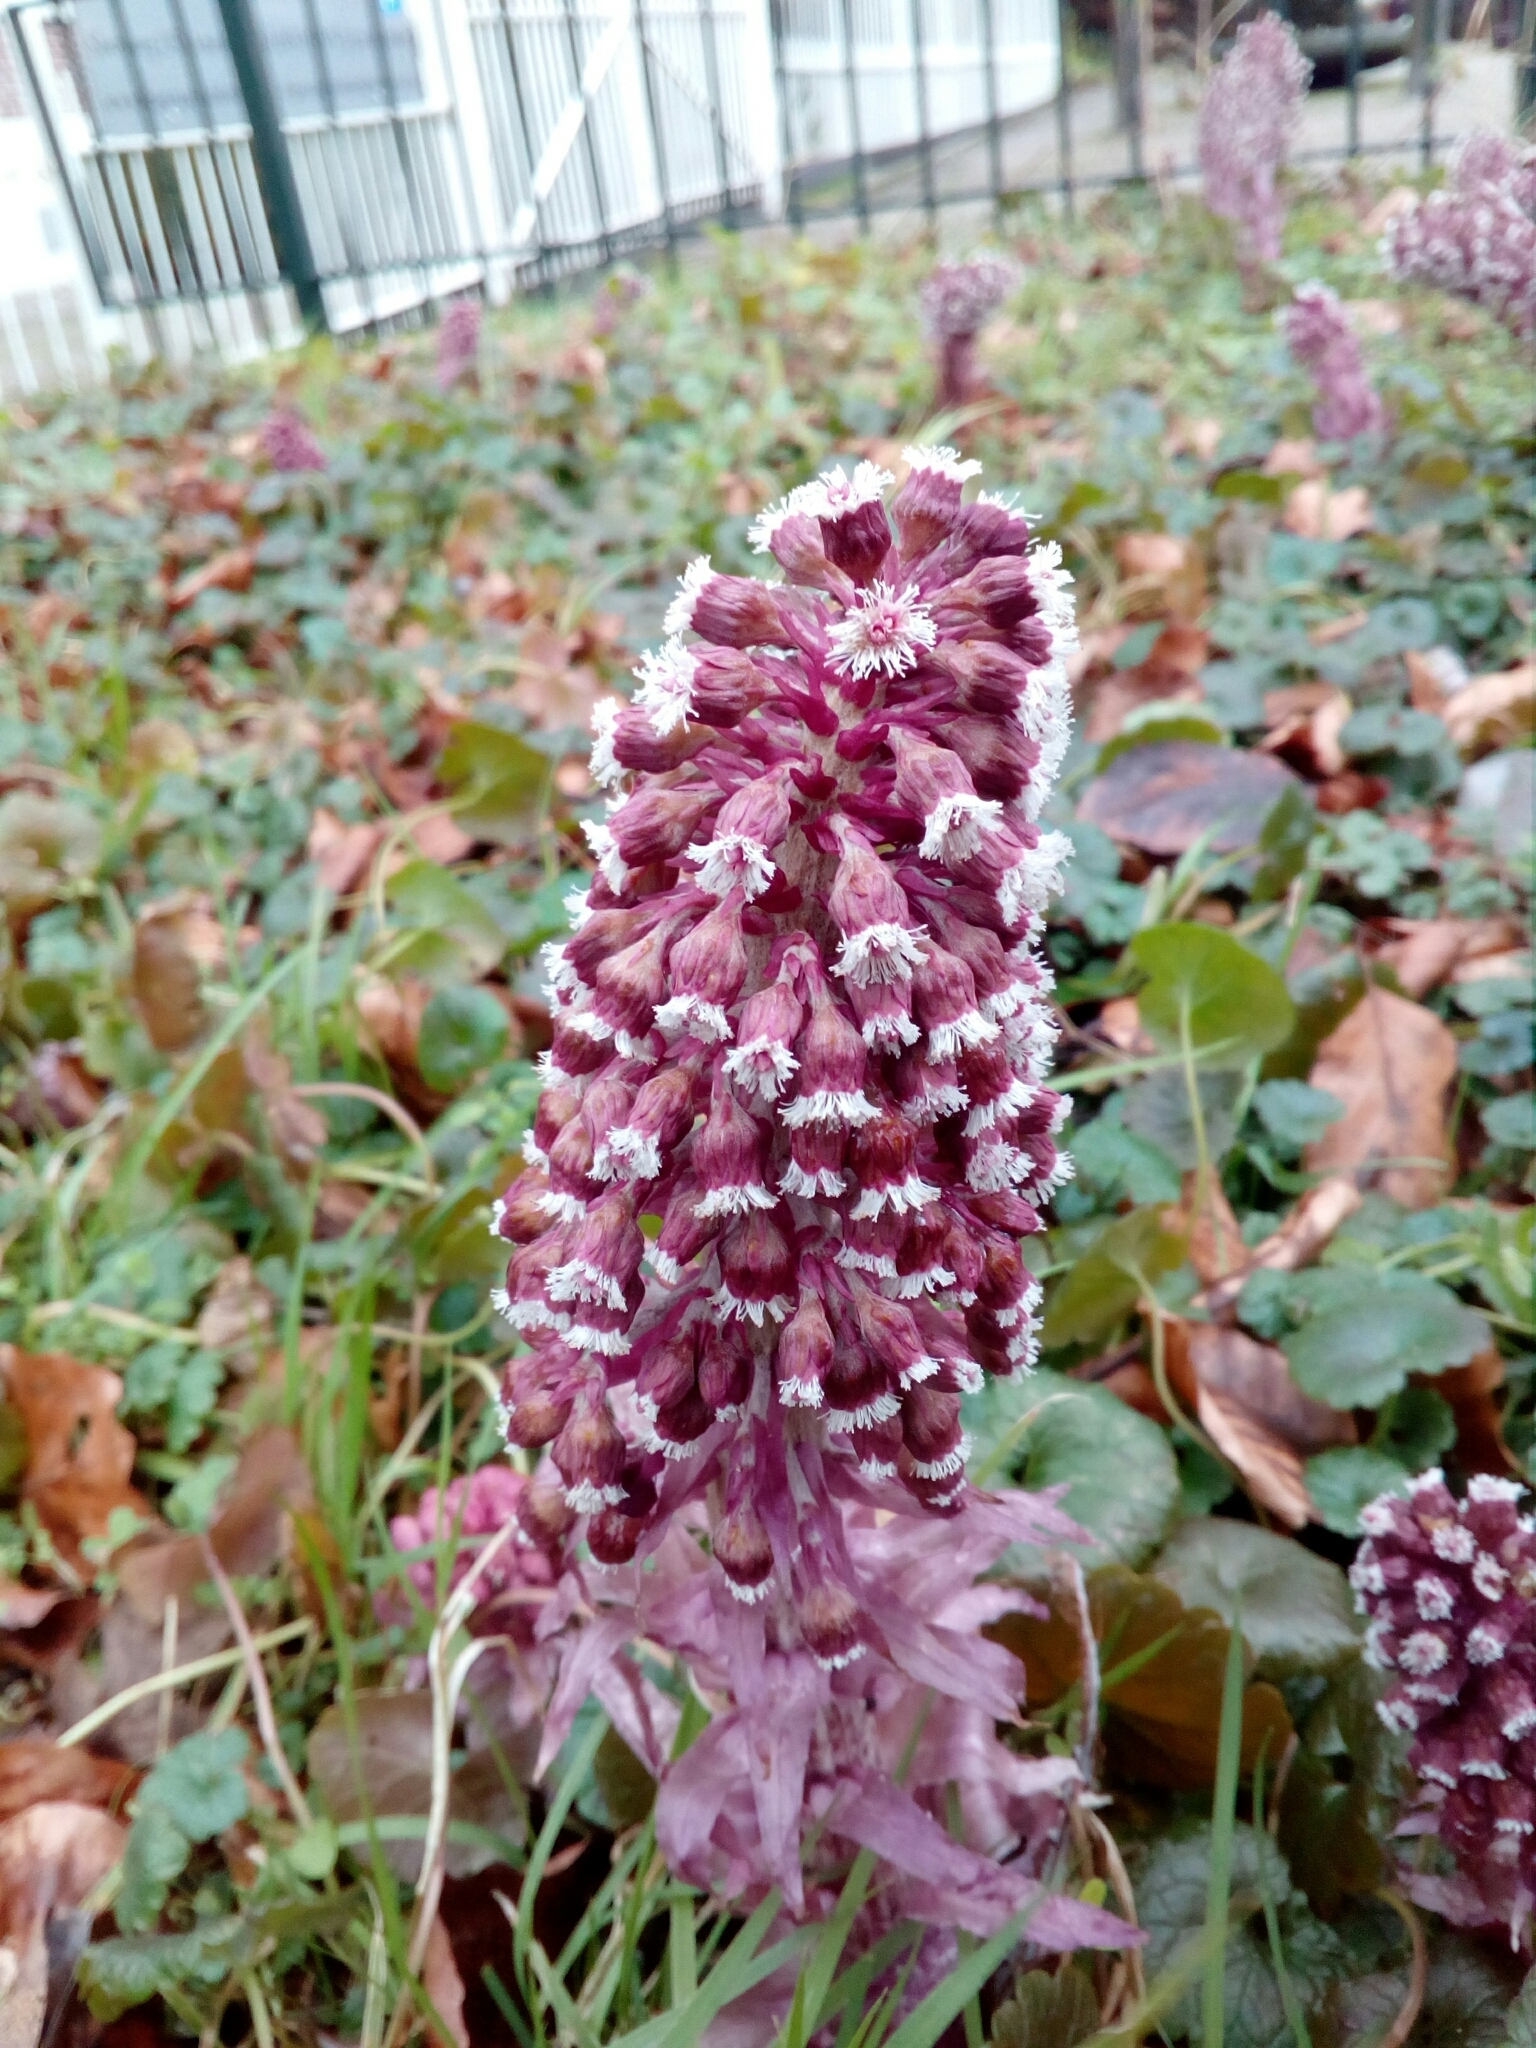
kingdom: Plantae
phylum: Tracheophyta
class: Magnoliopsida
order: Asterales
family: Asteraceae
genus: Petasites
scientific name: Petasites hybridus
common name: Butterbur
